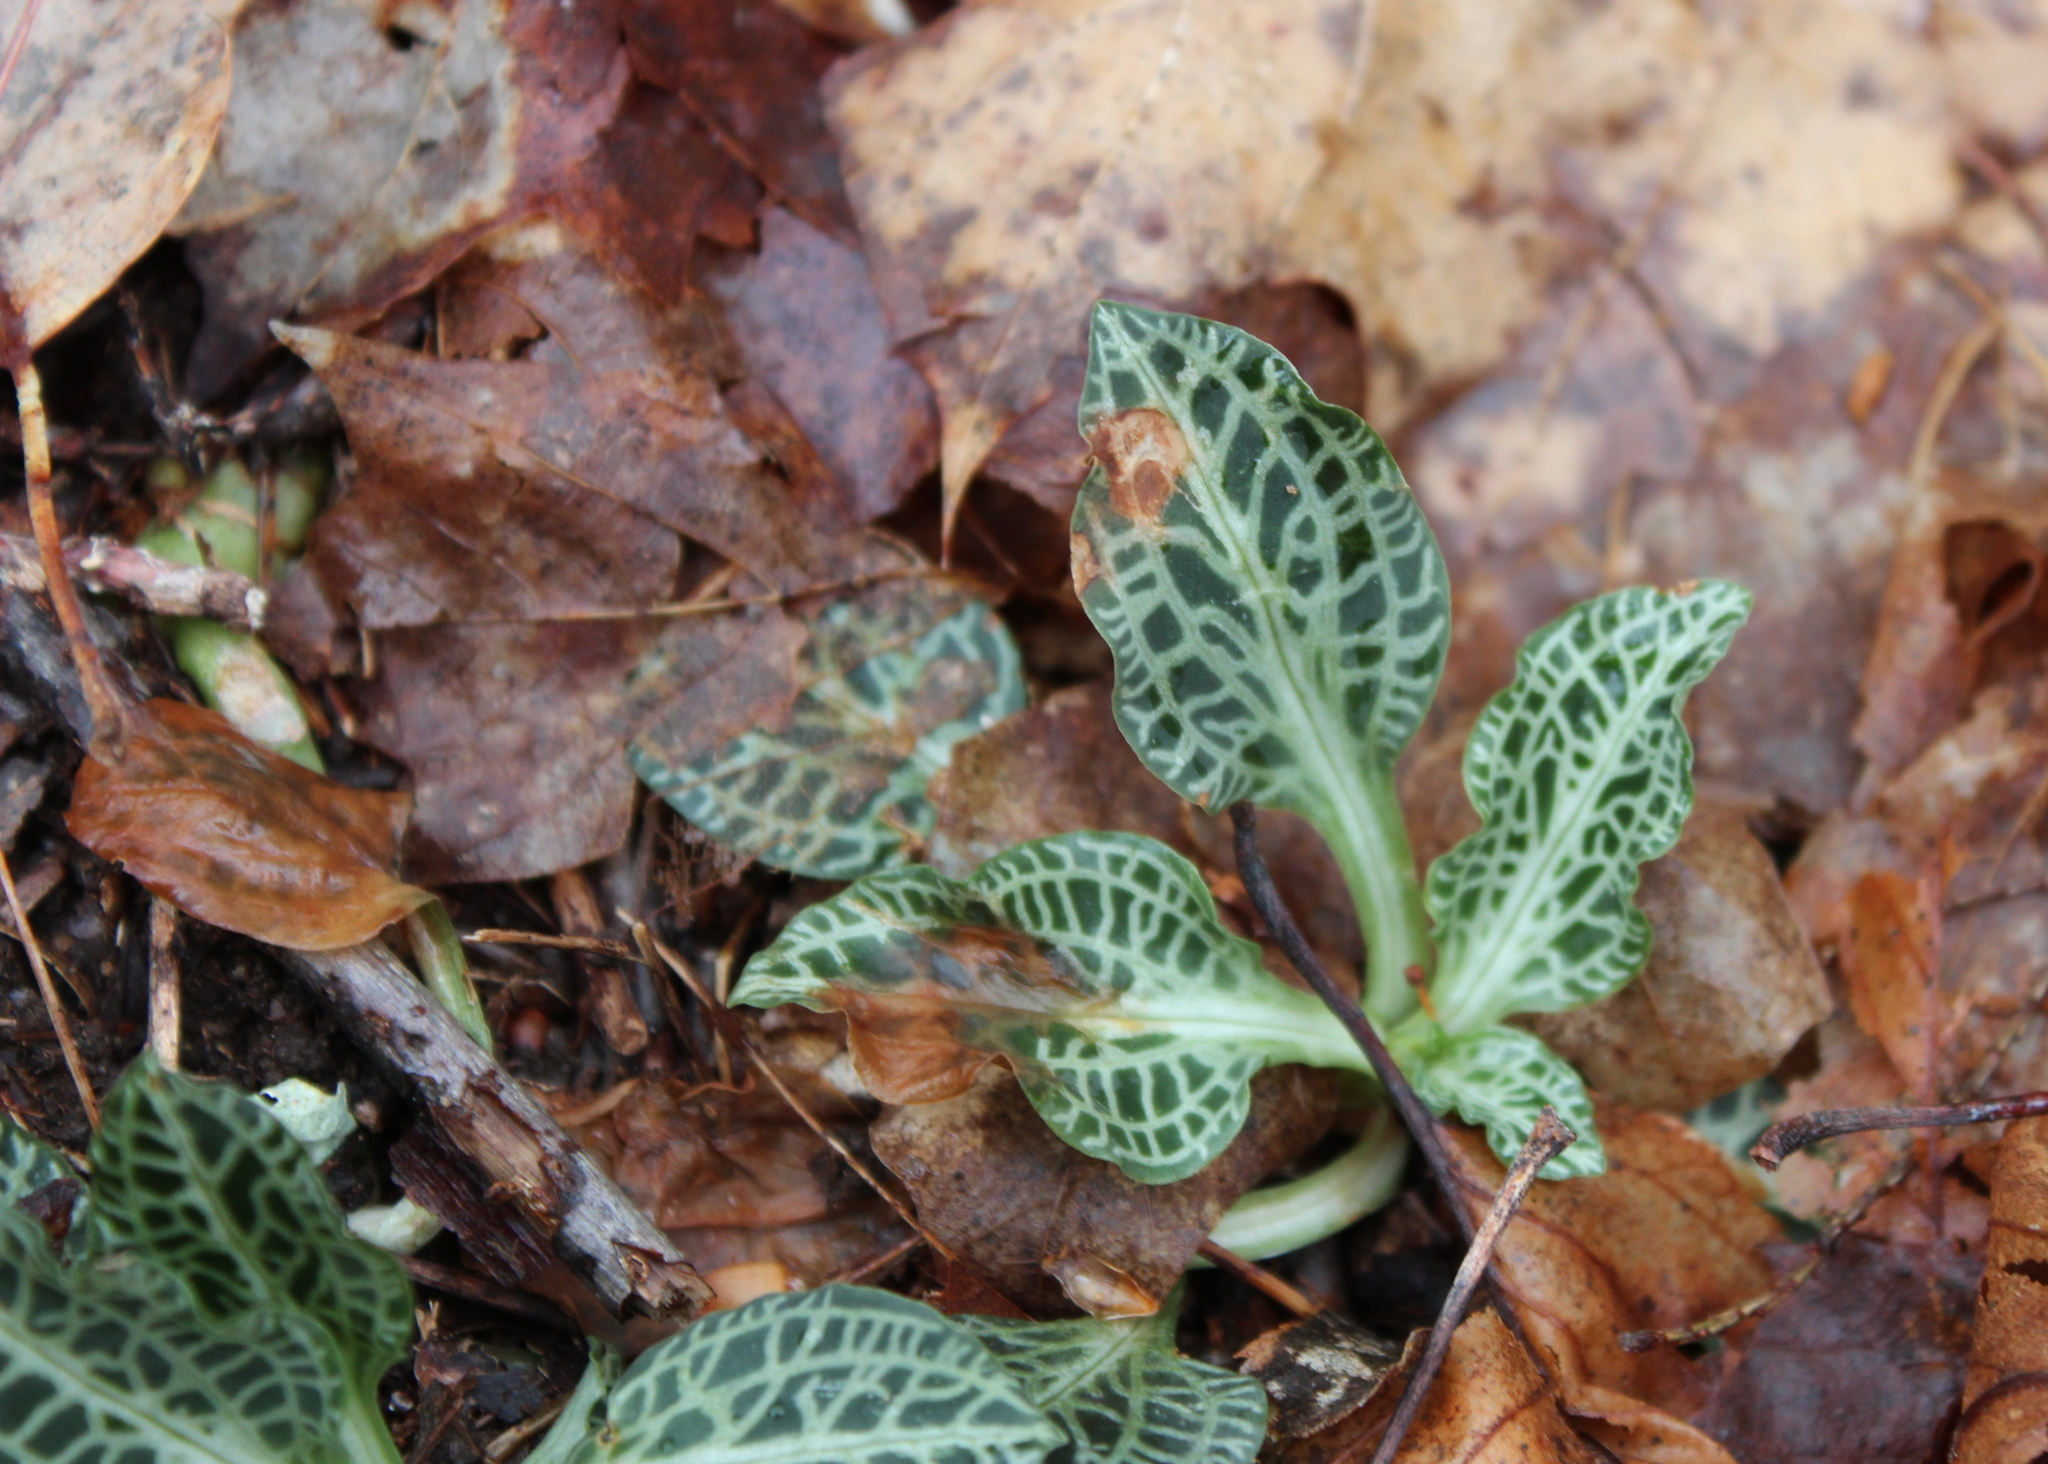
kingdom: Plantae
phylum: Tracheophyta
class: Liliopsida
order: Asparagales
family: Orchidaceae
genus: Goodyera
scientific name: Goodyera pubescens
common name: Downy rattlesnake-plantain
